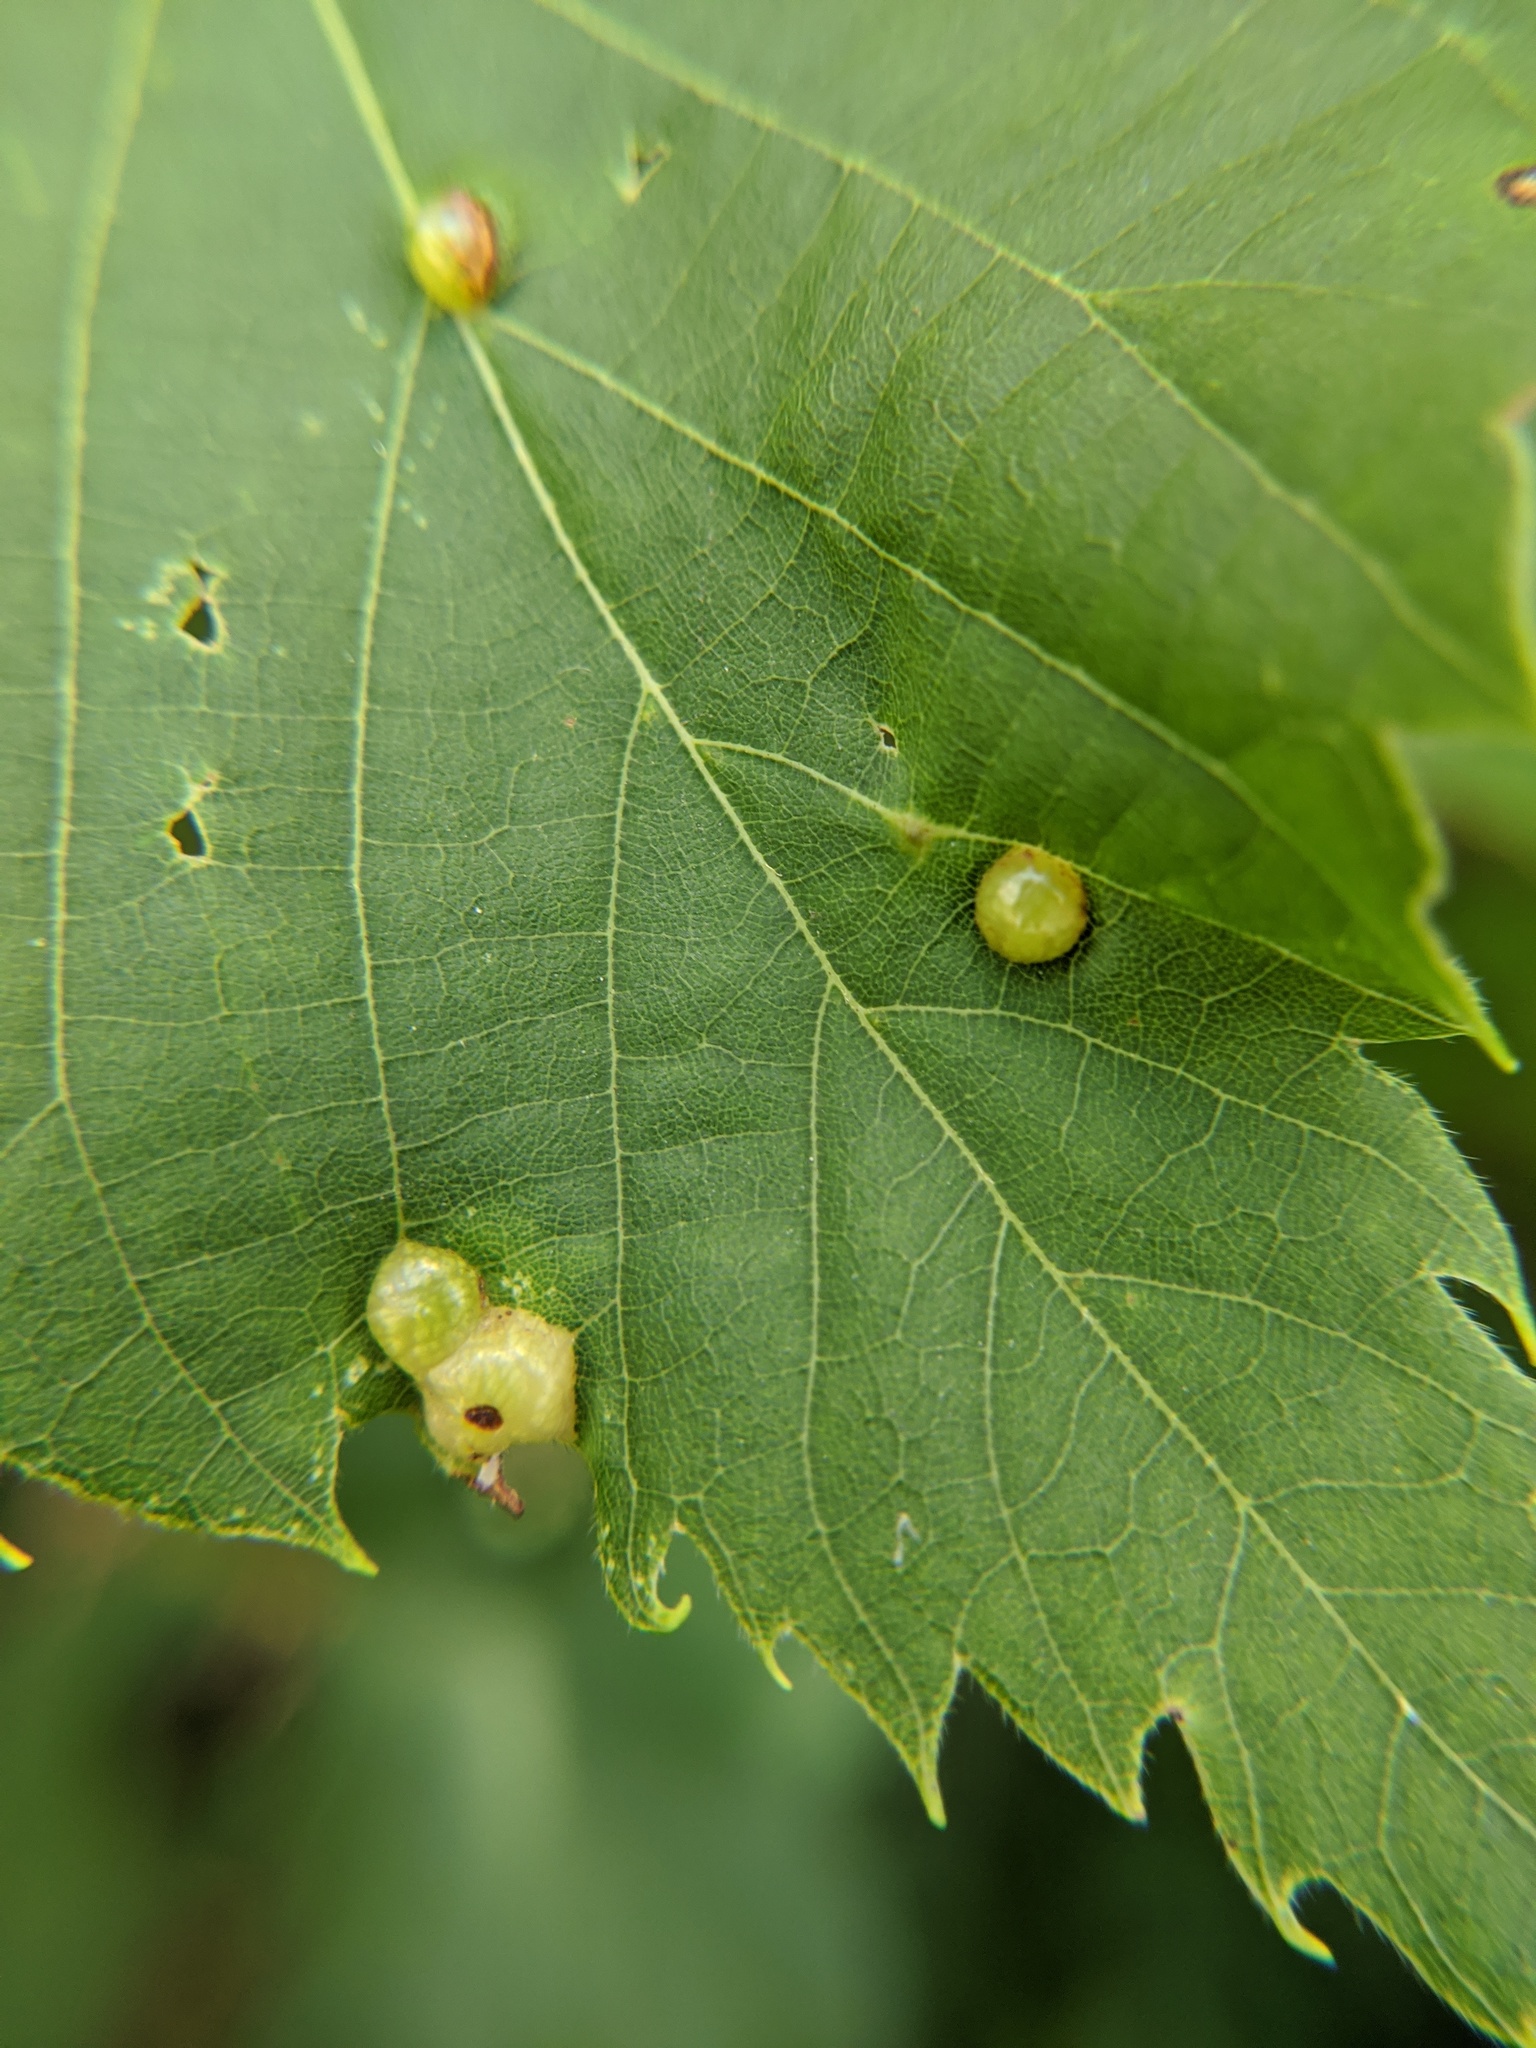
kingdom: Animalia
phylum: Arthropoda
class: Insecta
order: Diptera
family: Cecidomyiidae
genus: Contarinia
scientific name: Contarinia verrucicola
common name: Linden wart gall midge
